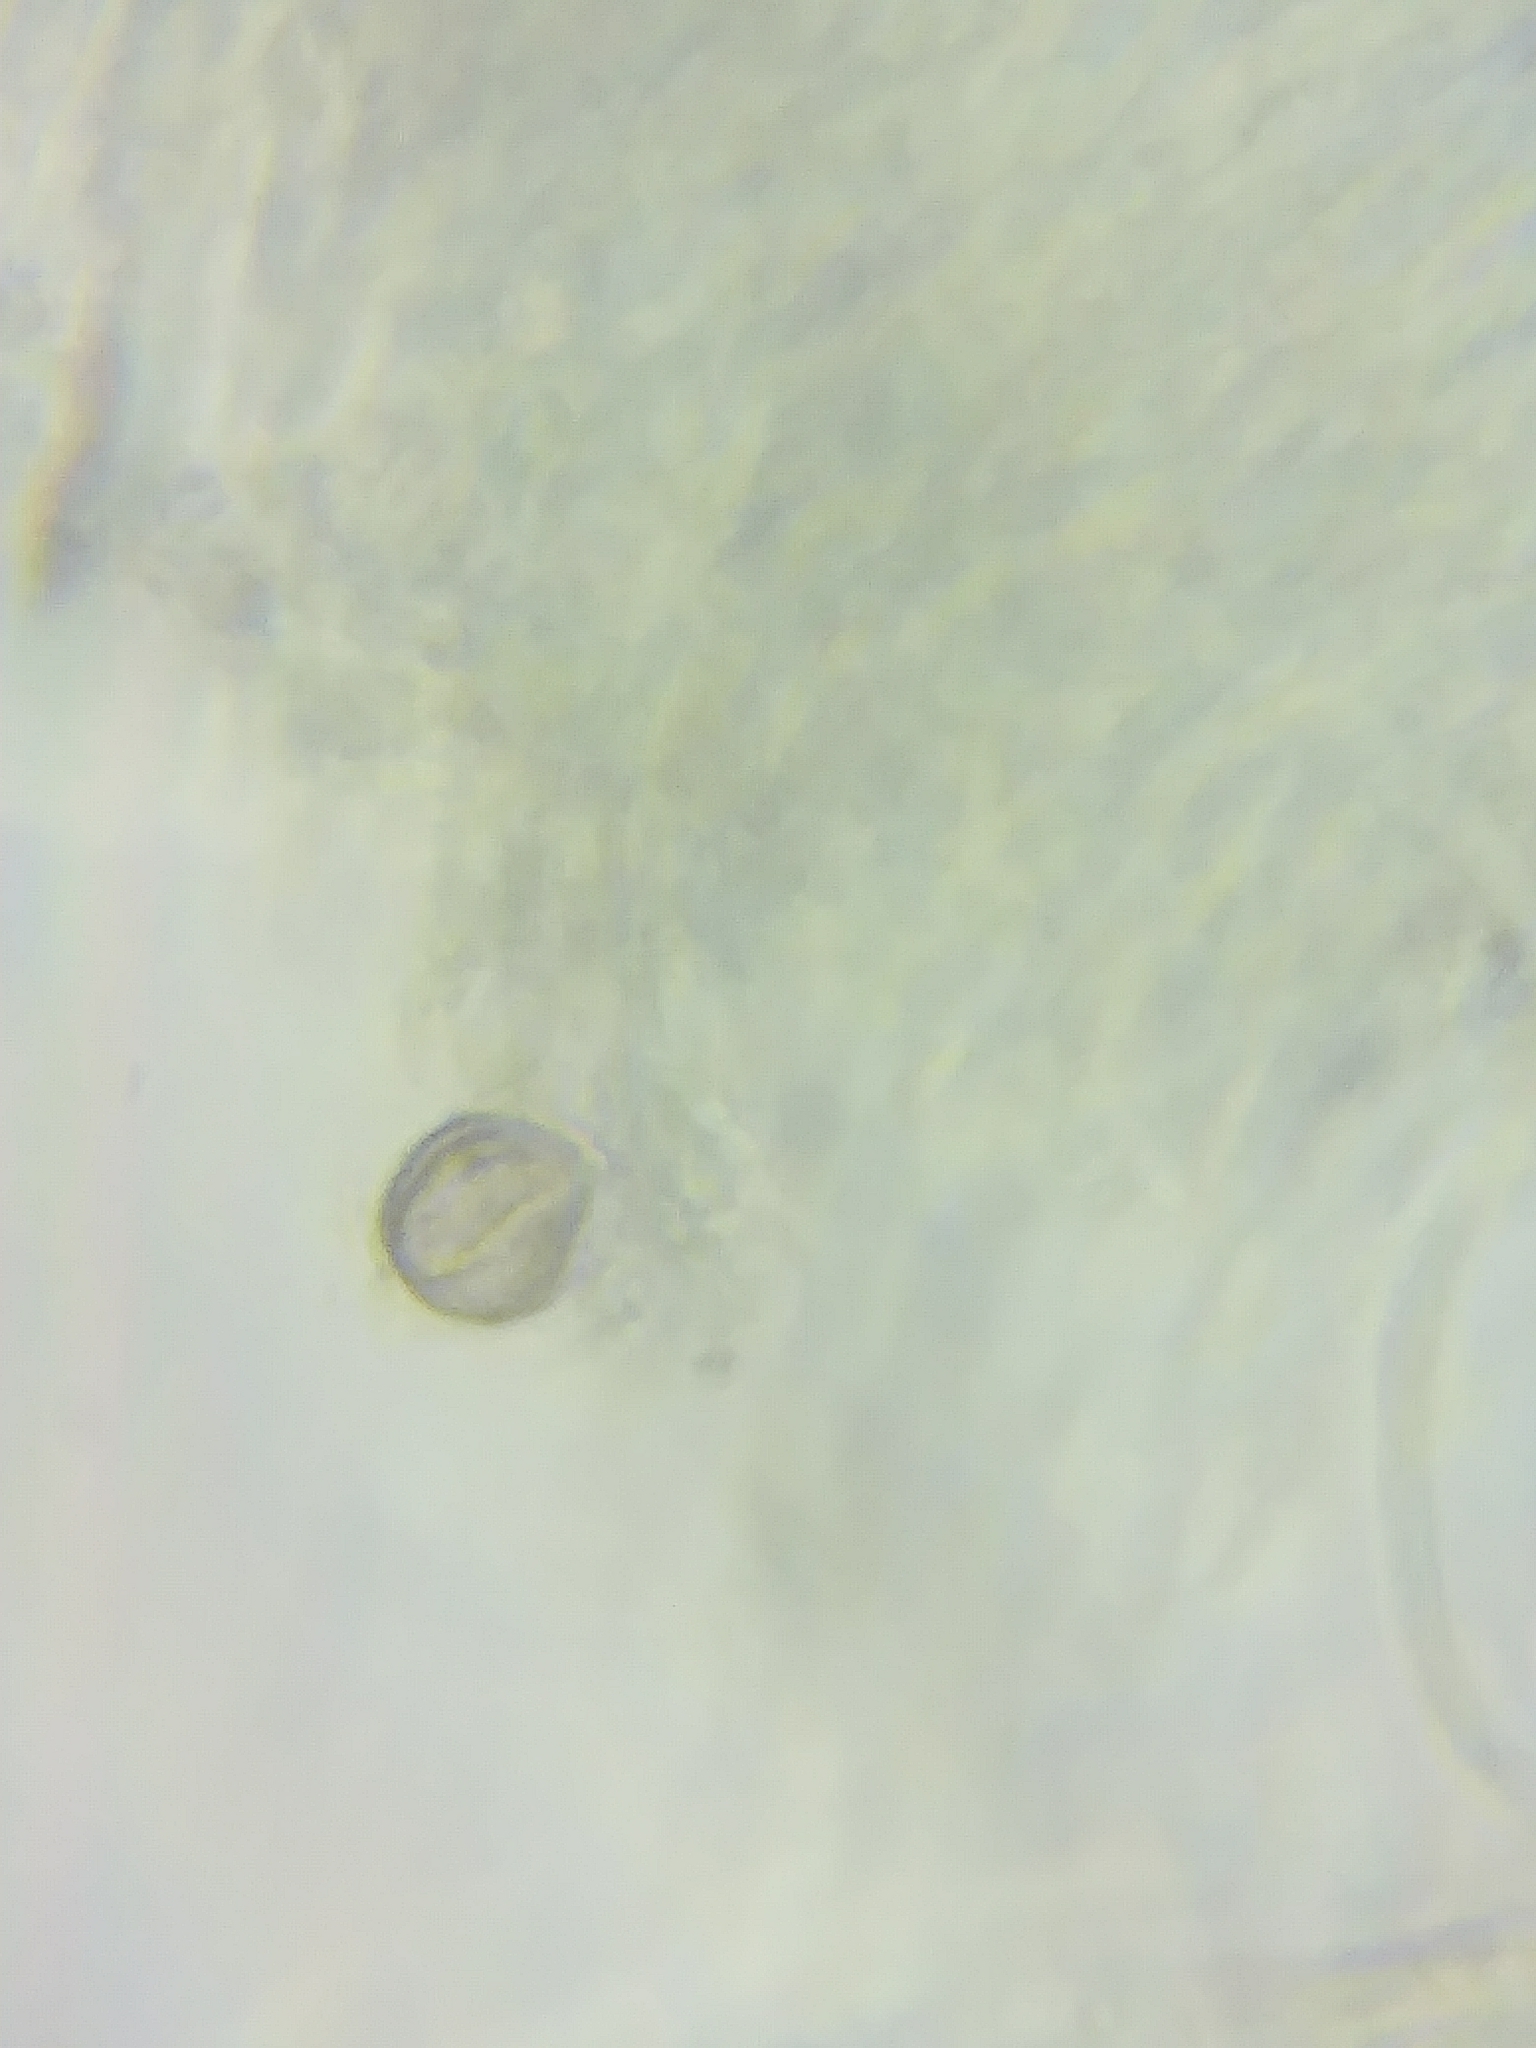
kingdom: Fungi
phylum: Ascomycota
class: Leotiomycetes
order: Leotiales
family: Leotiaceae
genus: Leotia
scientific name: Leotia lubrica
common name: Jellybaby
